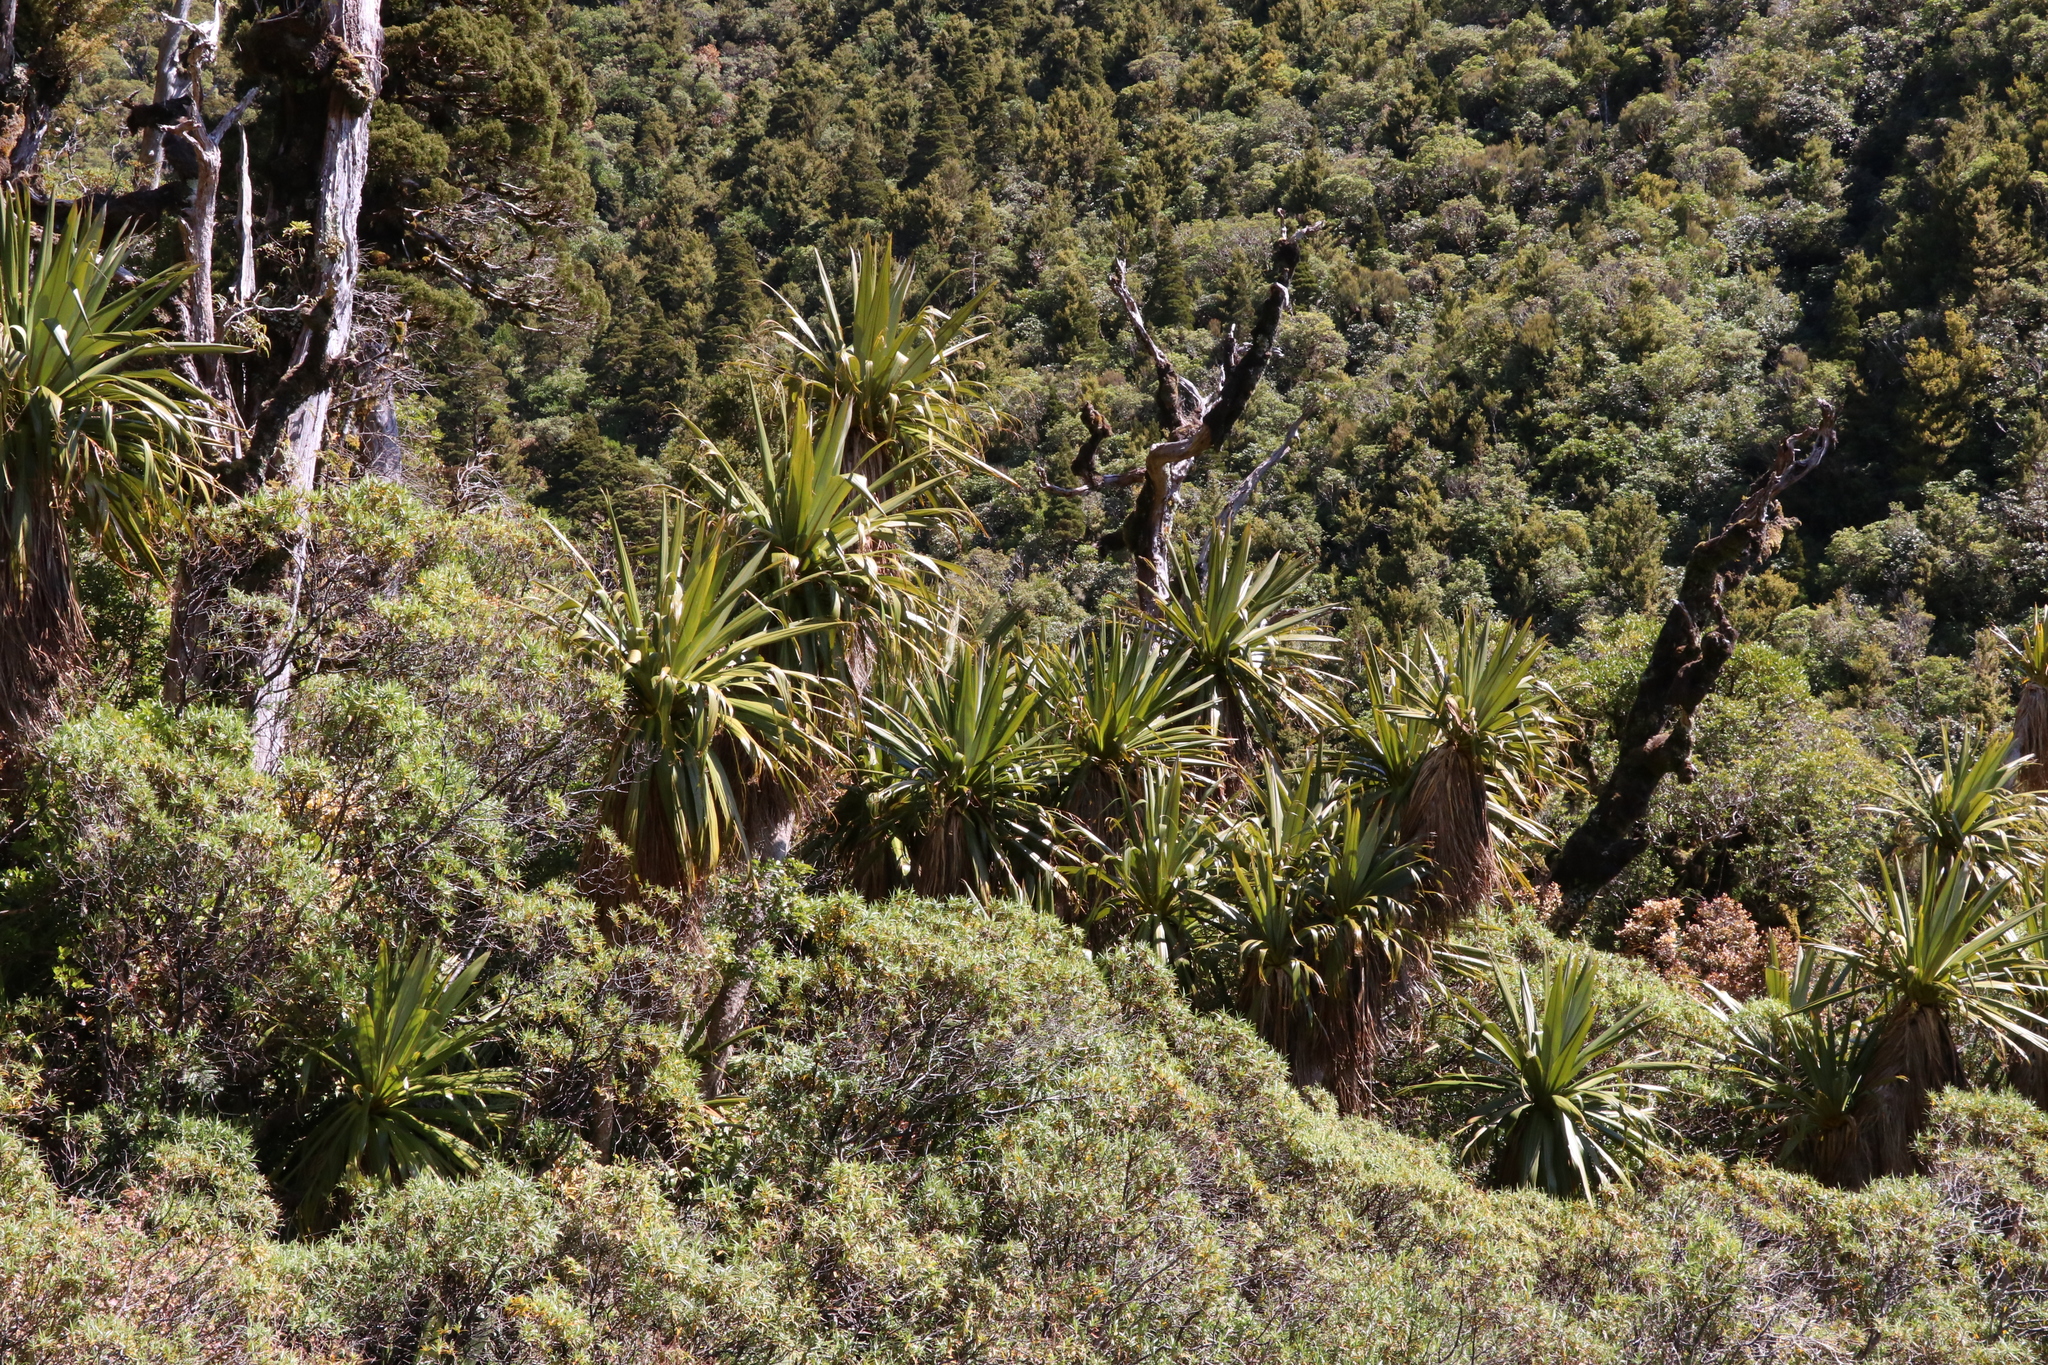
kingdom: Plantae
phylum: Tracheophyta
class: Liliopsida
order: Asparagales
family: Asparagaceae
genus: Cordyline
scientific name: Cordyline indivisa
